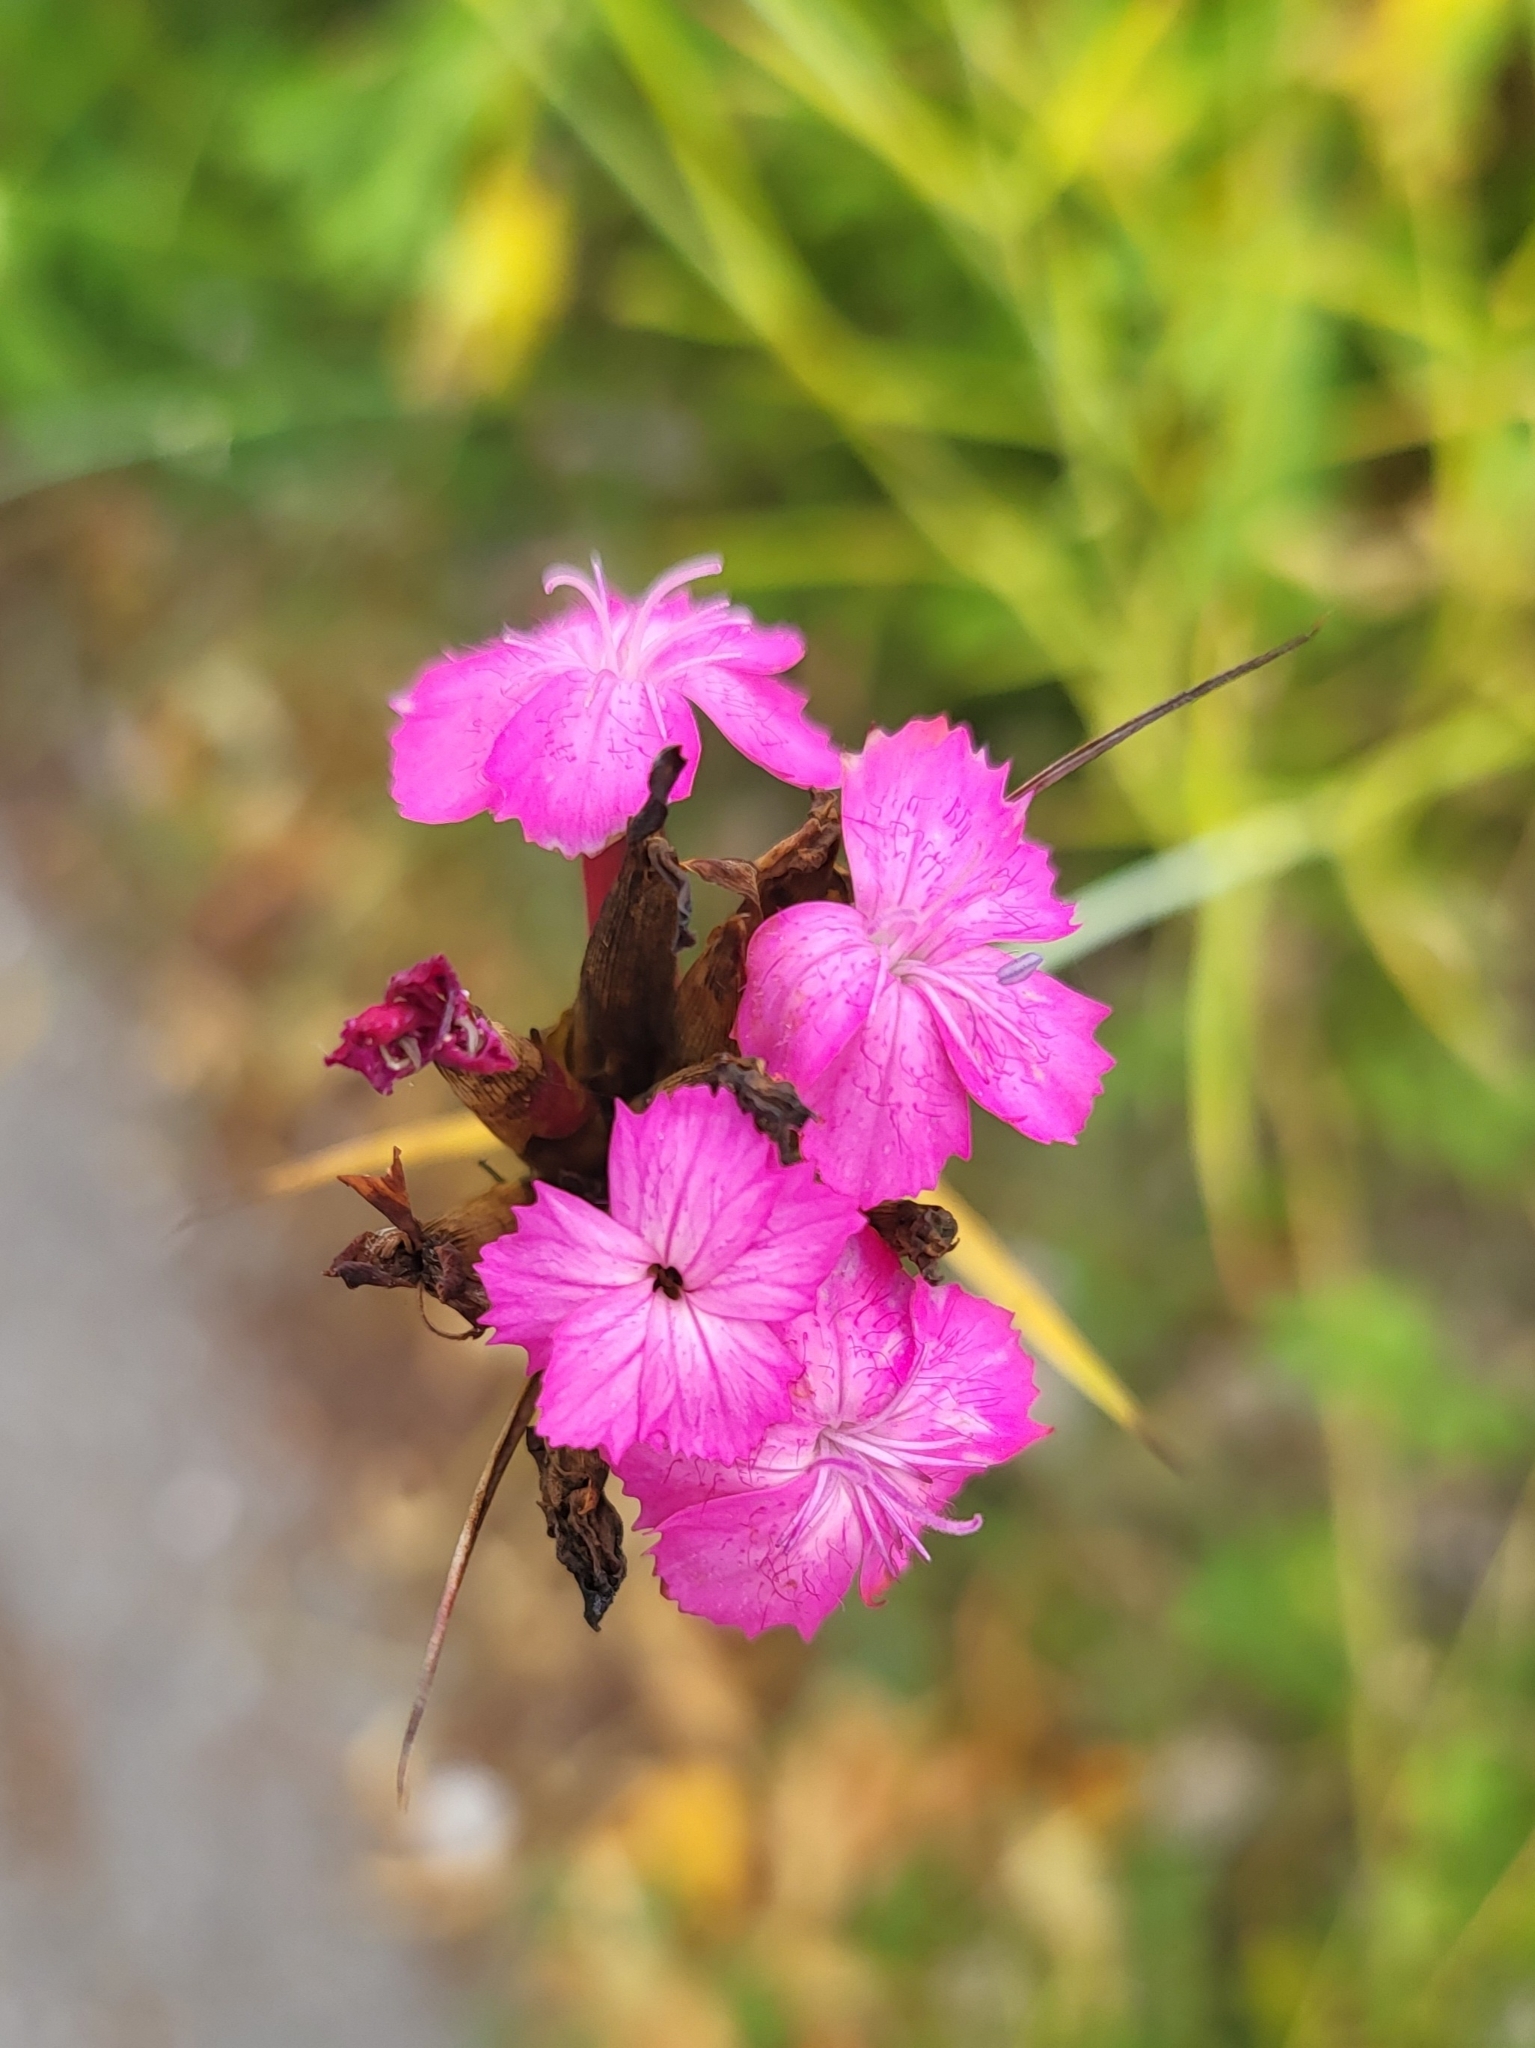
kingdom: Plantae
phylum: Tracheophyta
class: Magnoliopsida
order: Caryophyllales
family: Caryophyllaceae
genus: Dianthus
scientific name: Dianthus barbatus
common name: Sweet-william
